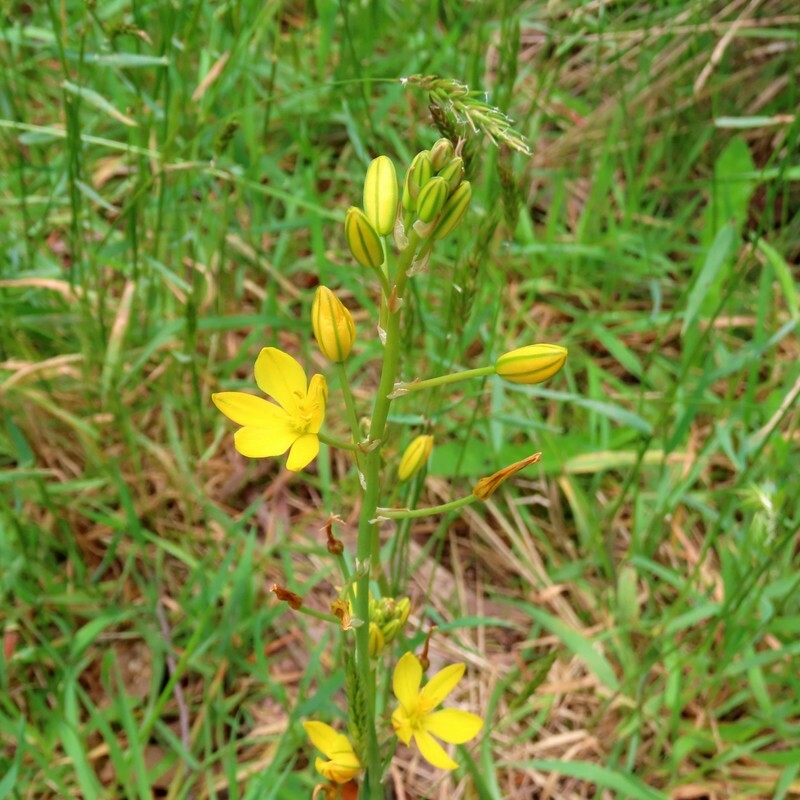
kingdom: Plantae
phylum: Tracheophyta
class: Liliopsida
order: Asparagales
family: Asphodelaceae
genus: Bulbine
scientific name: Bulbine bulbosa
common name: Golden-lily
